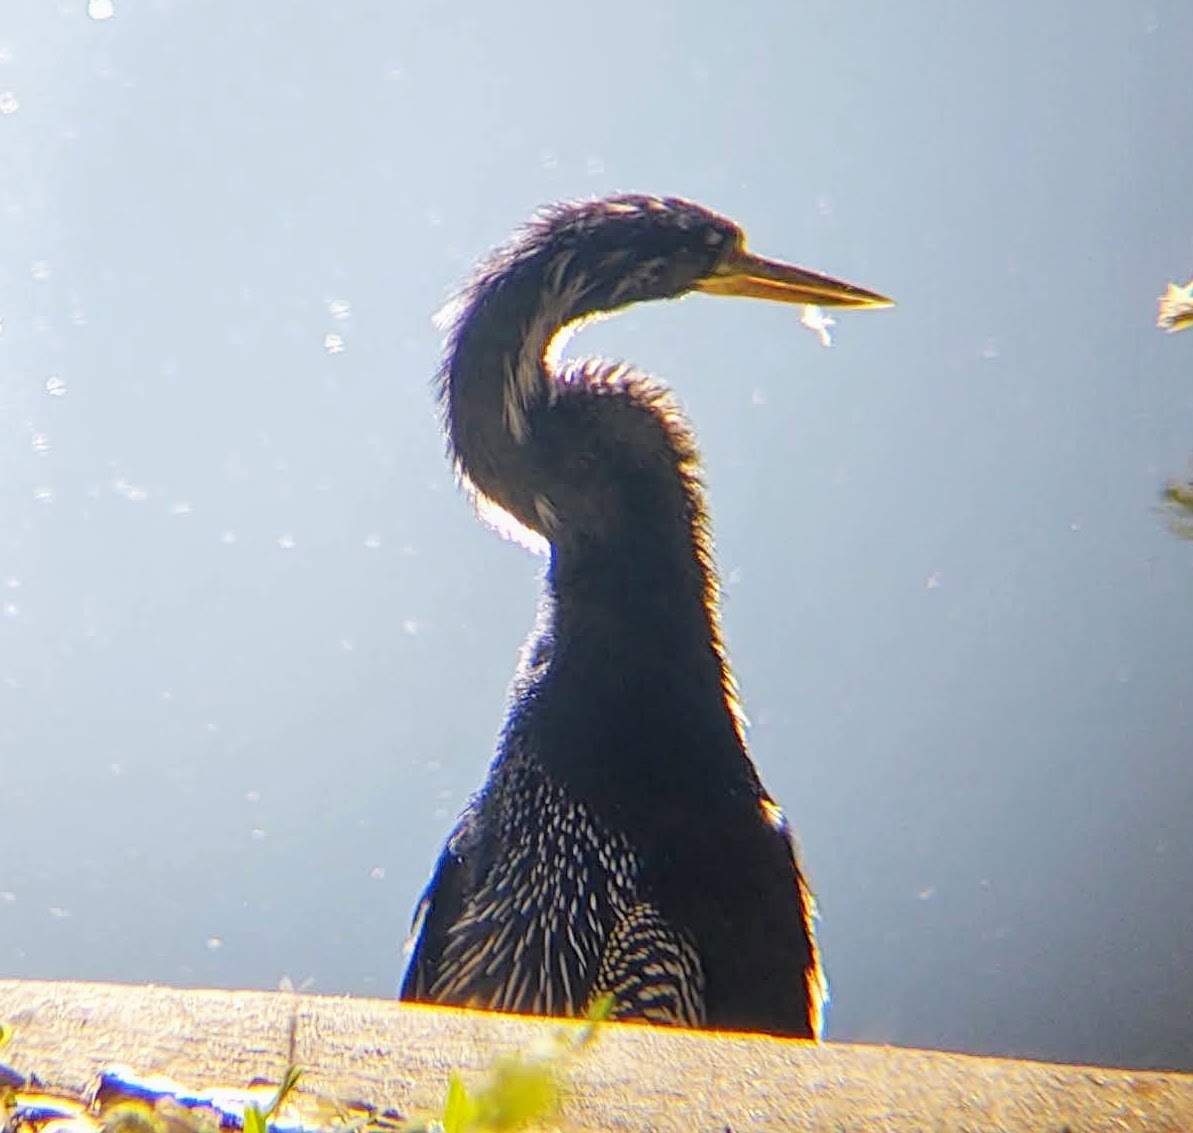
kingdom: Animalia
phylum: Chordata
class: Aves
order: Suliformes
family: Anhingidae
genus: Anhinga
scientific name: Anhinga anhinga
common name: Anhinga
